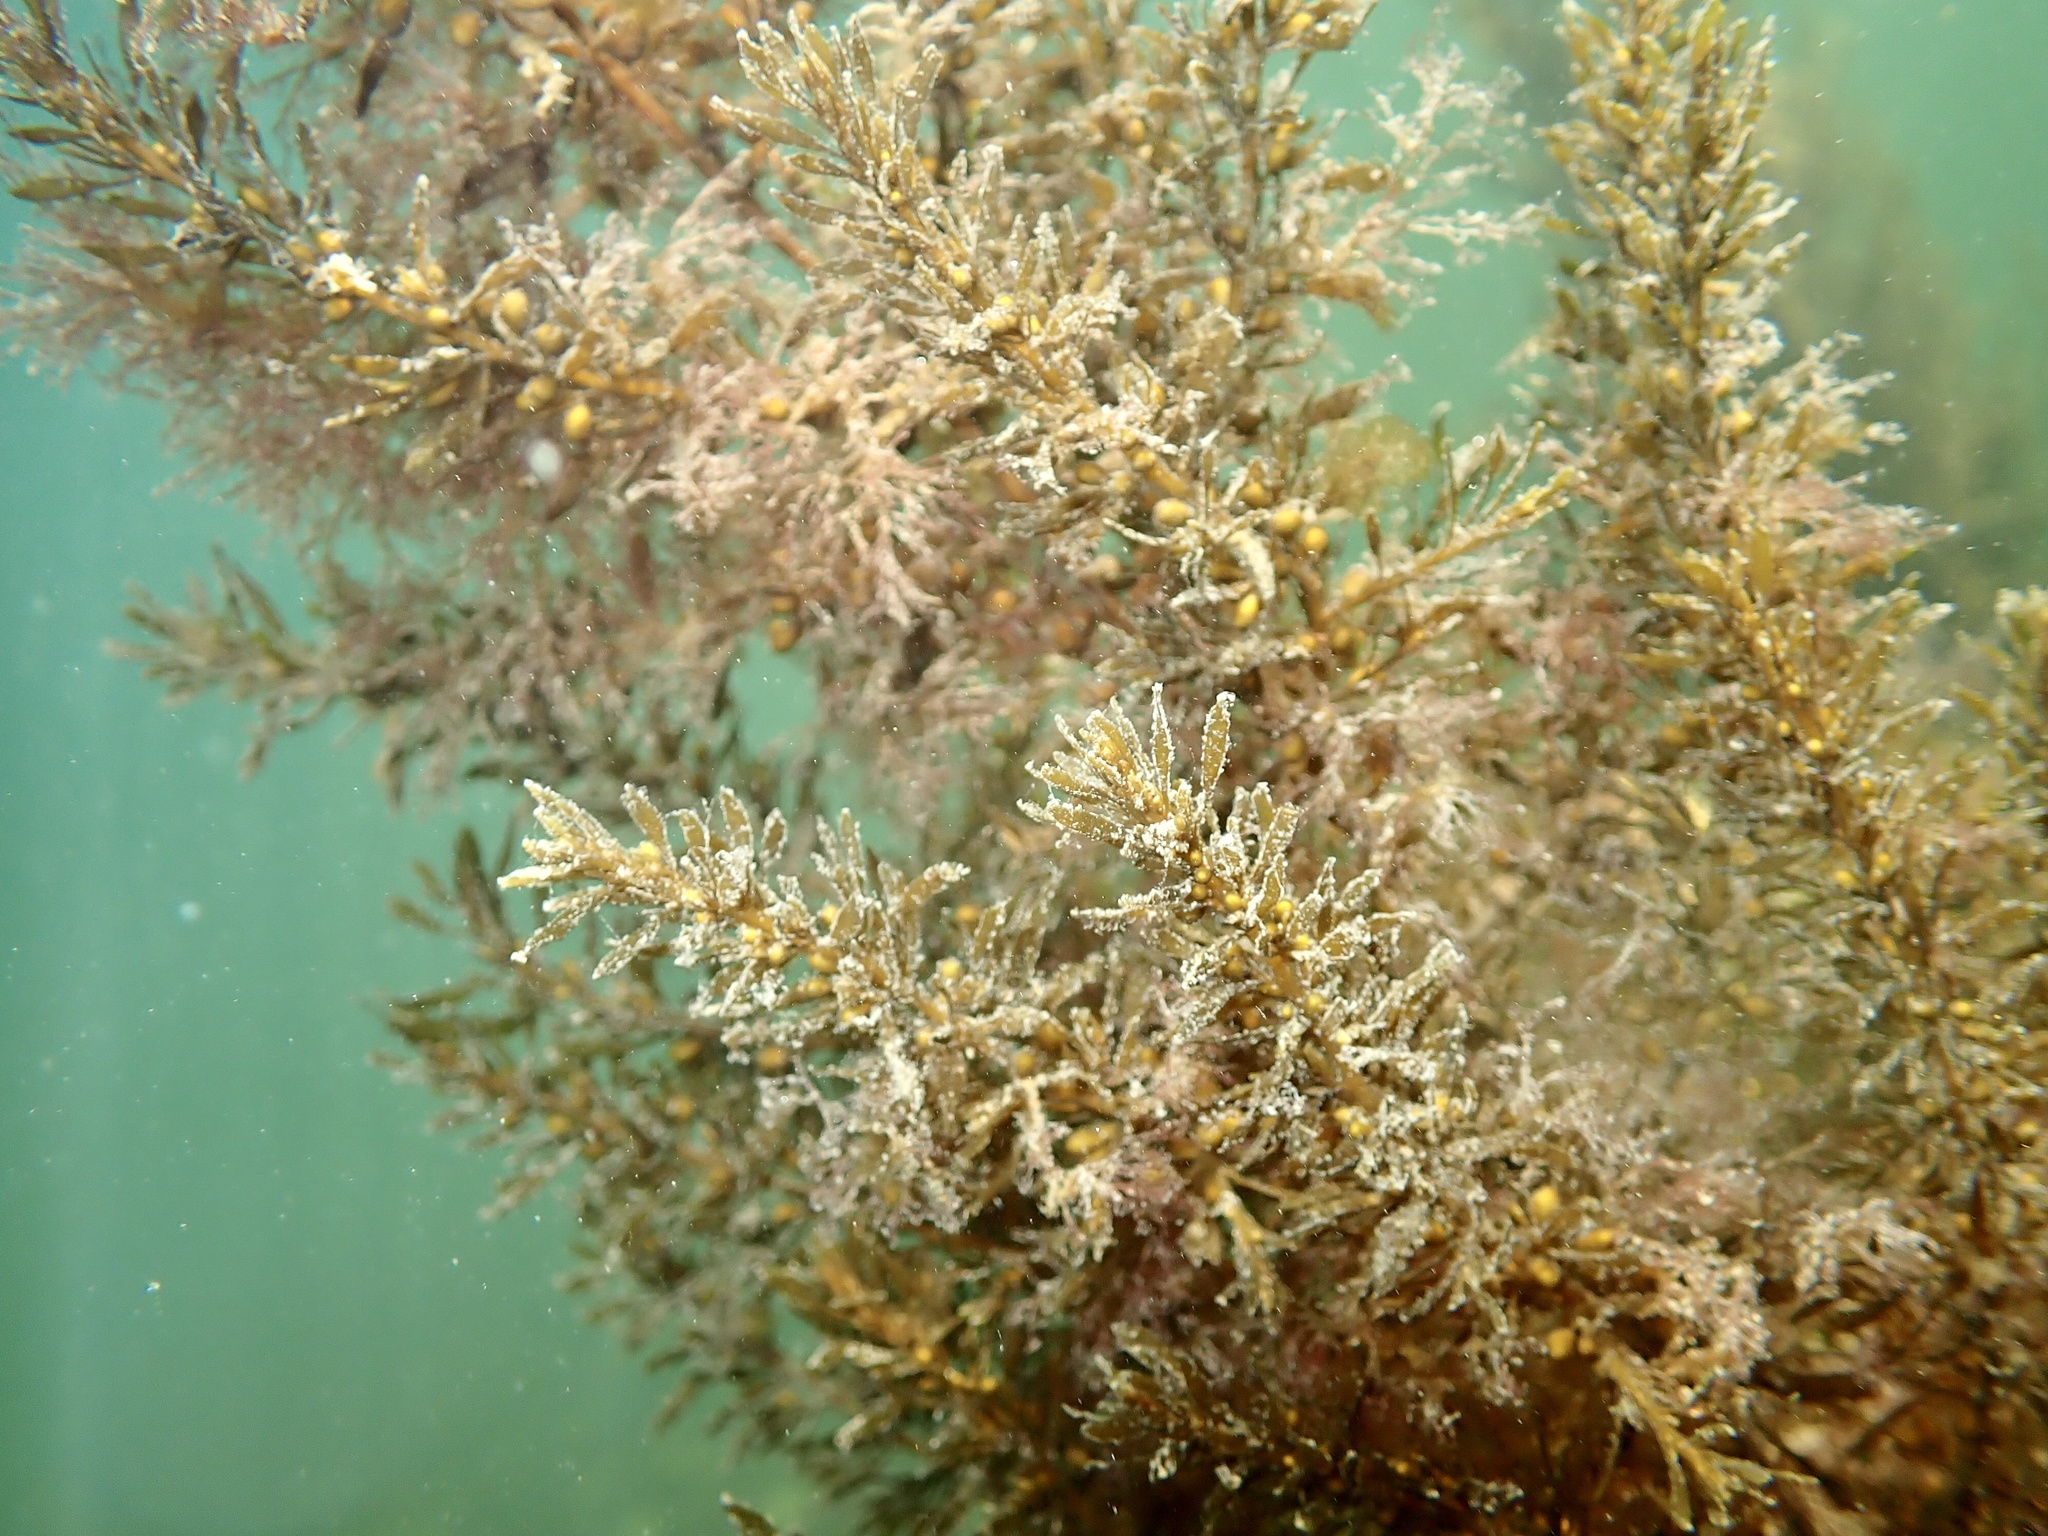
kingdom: Chromista
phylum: Ochrophyta
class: Phaeophyceae
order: Fucales
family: Sargassaceae
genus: Sargassum
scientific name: Sargassum muticum
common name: Japweed
